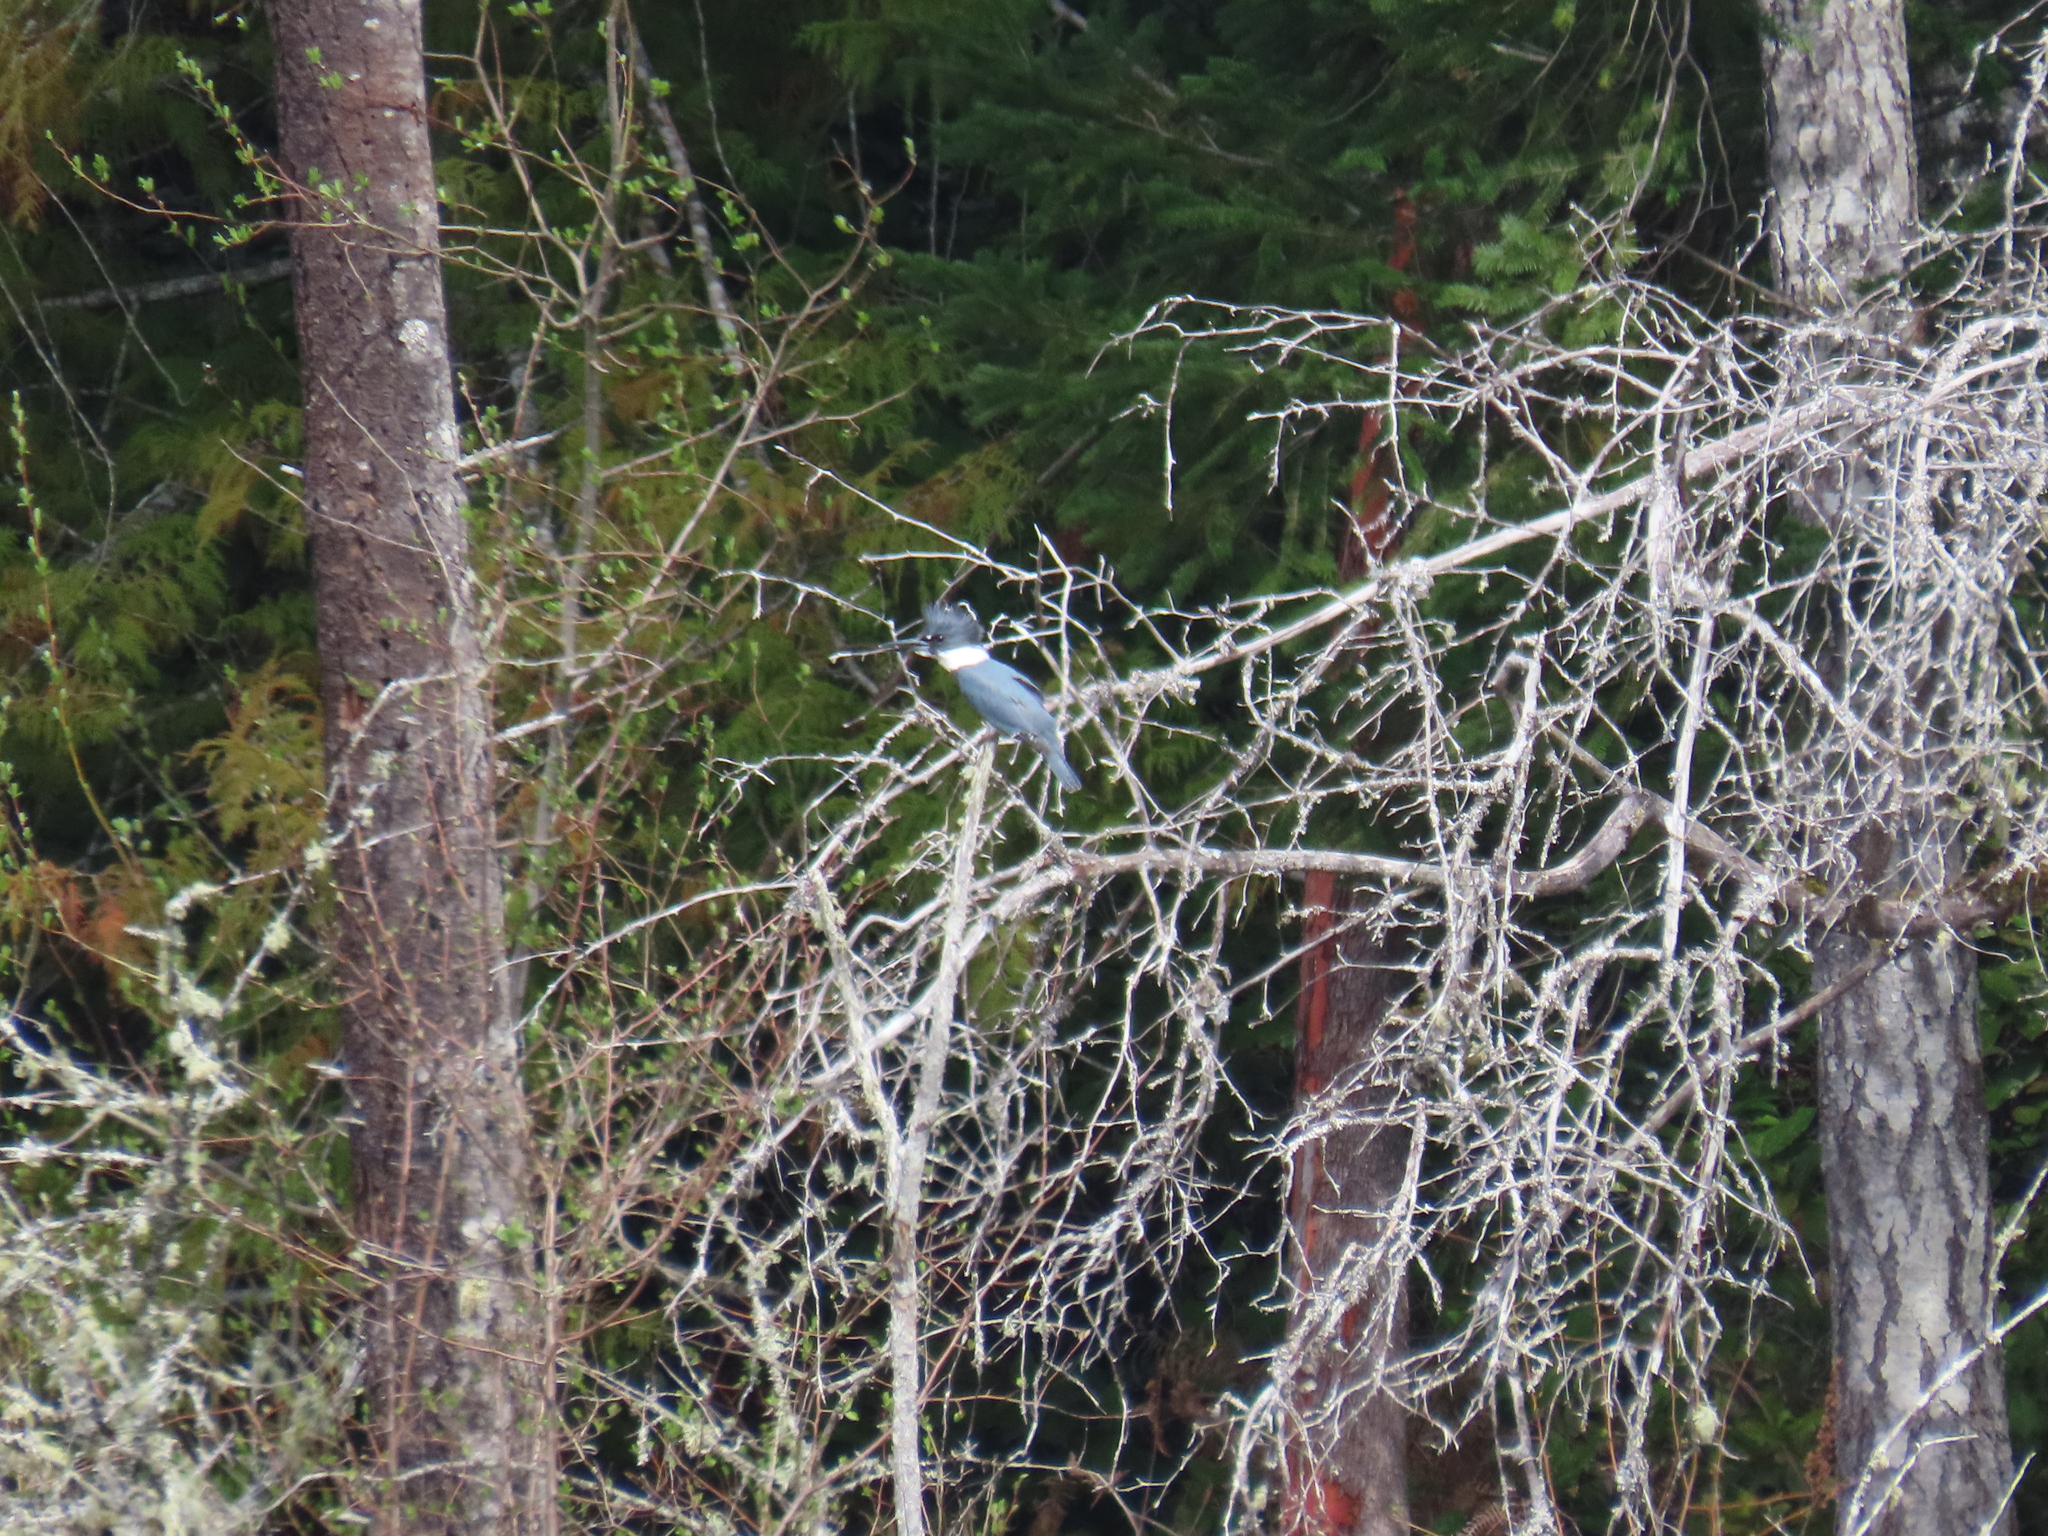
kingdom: Animalia
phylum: Chordata
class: Aves
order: Coraciiformes
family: Alcedinidae
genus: Megaceryle
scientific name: Megaceryle alcyon
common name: Belted kingfisher
